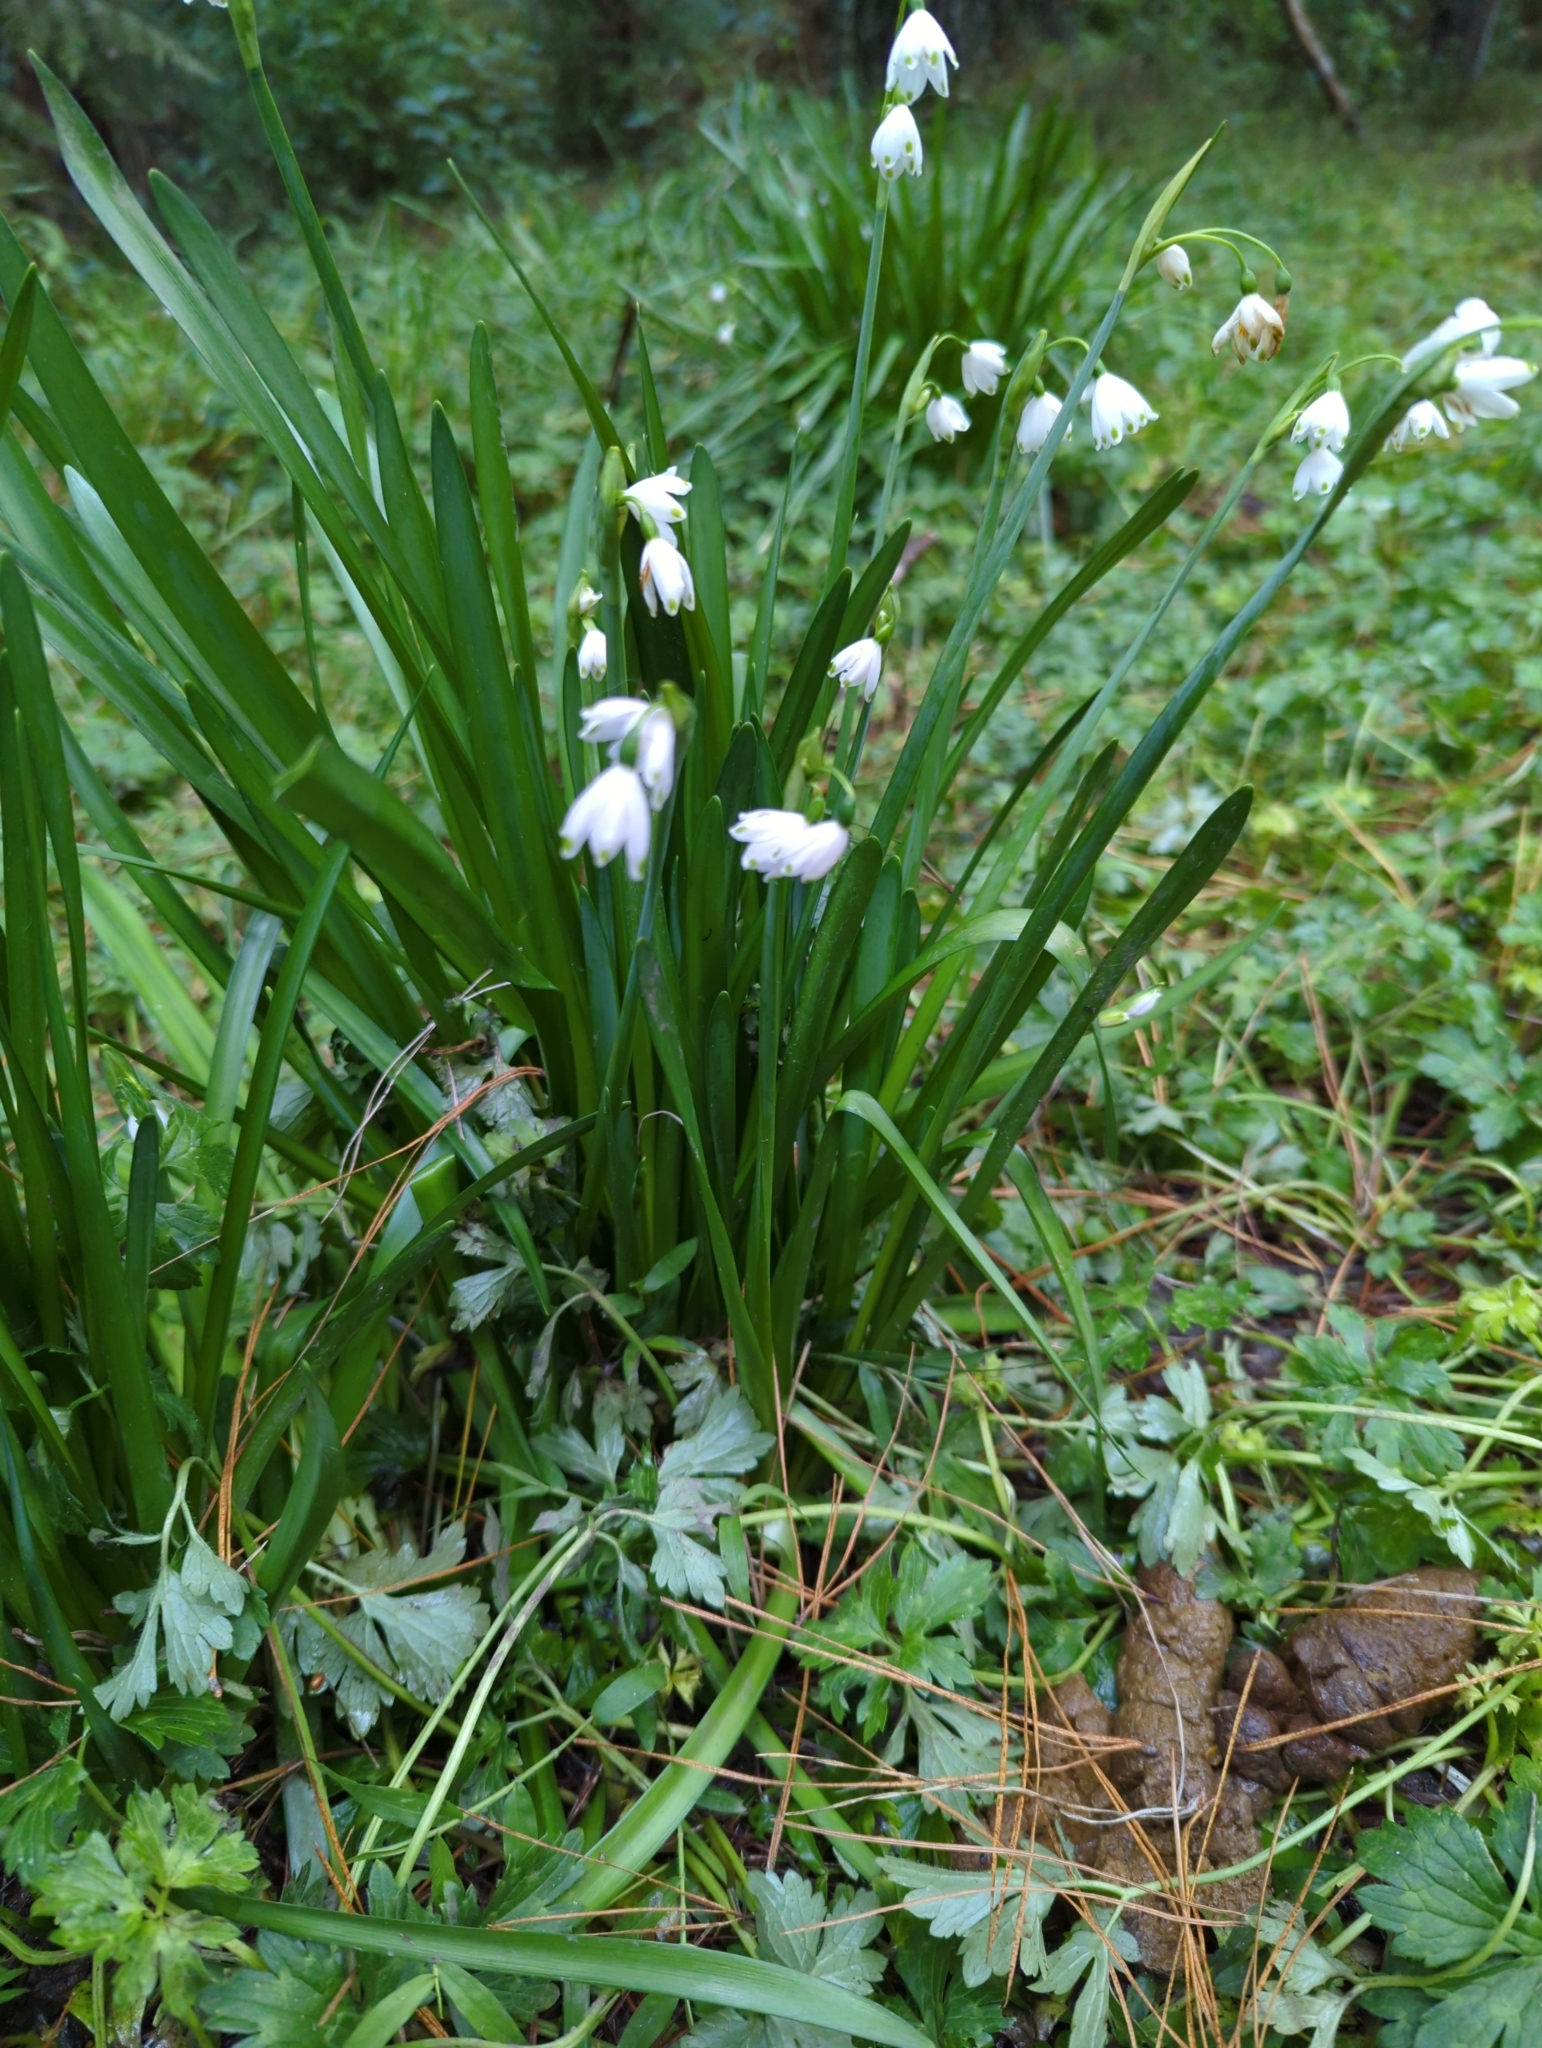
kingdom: Plantae
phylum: Tracheophyta
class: Liliopsida
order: Asparagales
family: Amaryllidaceae
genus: Leucojum
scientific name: Leucojum aestivum
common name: Summer snowflake
